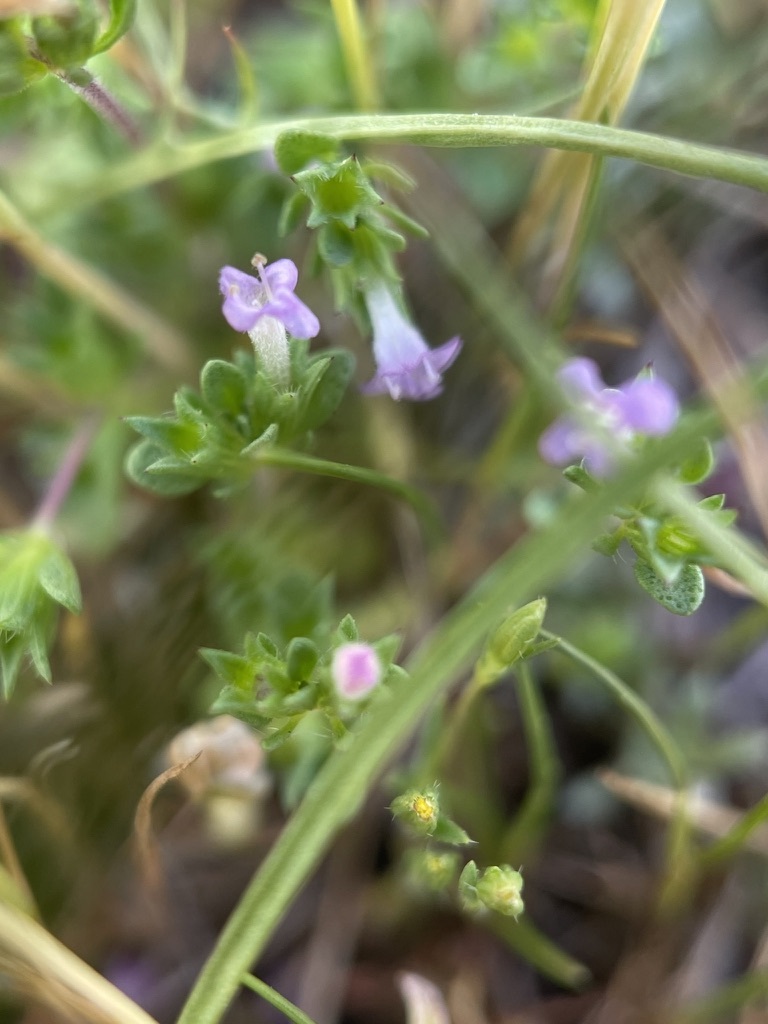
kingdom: Plantae
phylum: Tracheophyta
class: Magnoliopsida
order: Lamiales
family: Lamiaceae
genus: Pogogyne
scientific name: Pogogyne serpylloides
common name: Thymeleaf mesamint
